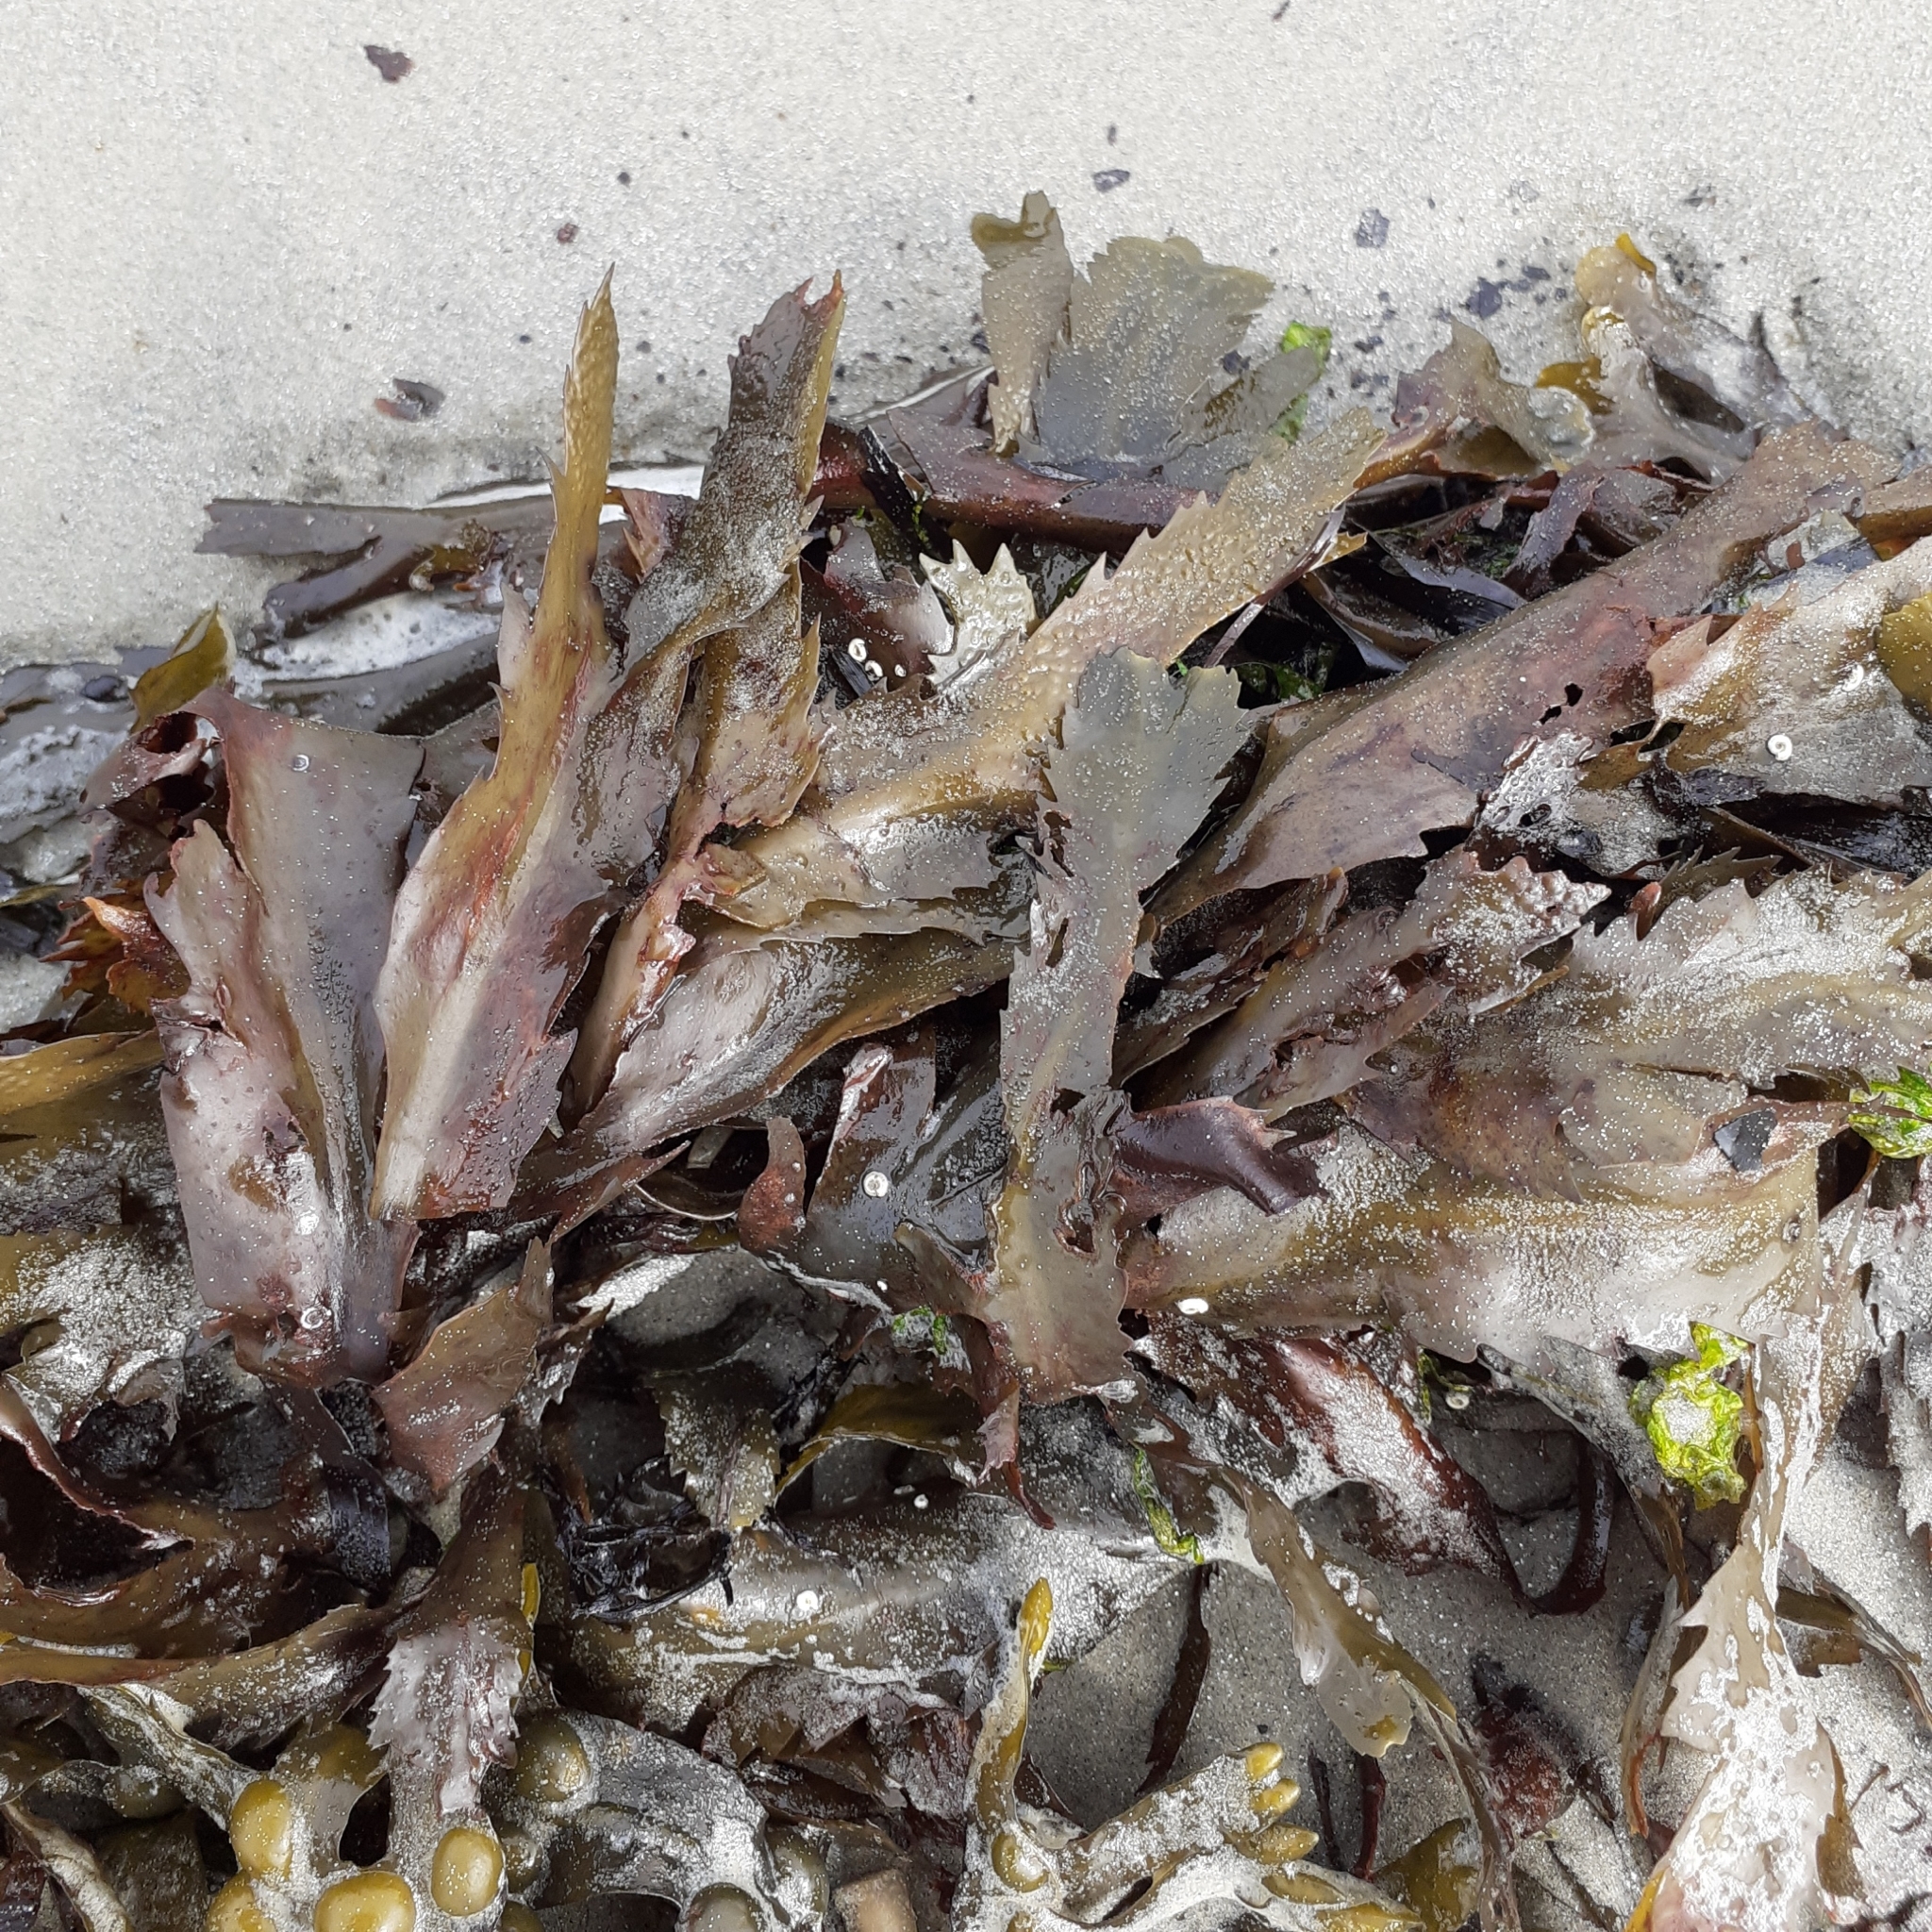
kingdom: Chromista
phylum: Ochrophyta
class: Phaeophyceae
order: Fucales
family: Fucaceae
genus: Fucus
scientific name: Fucus serratus
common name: Toothed wrack
